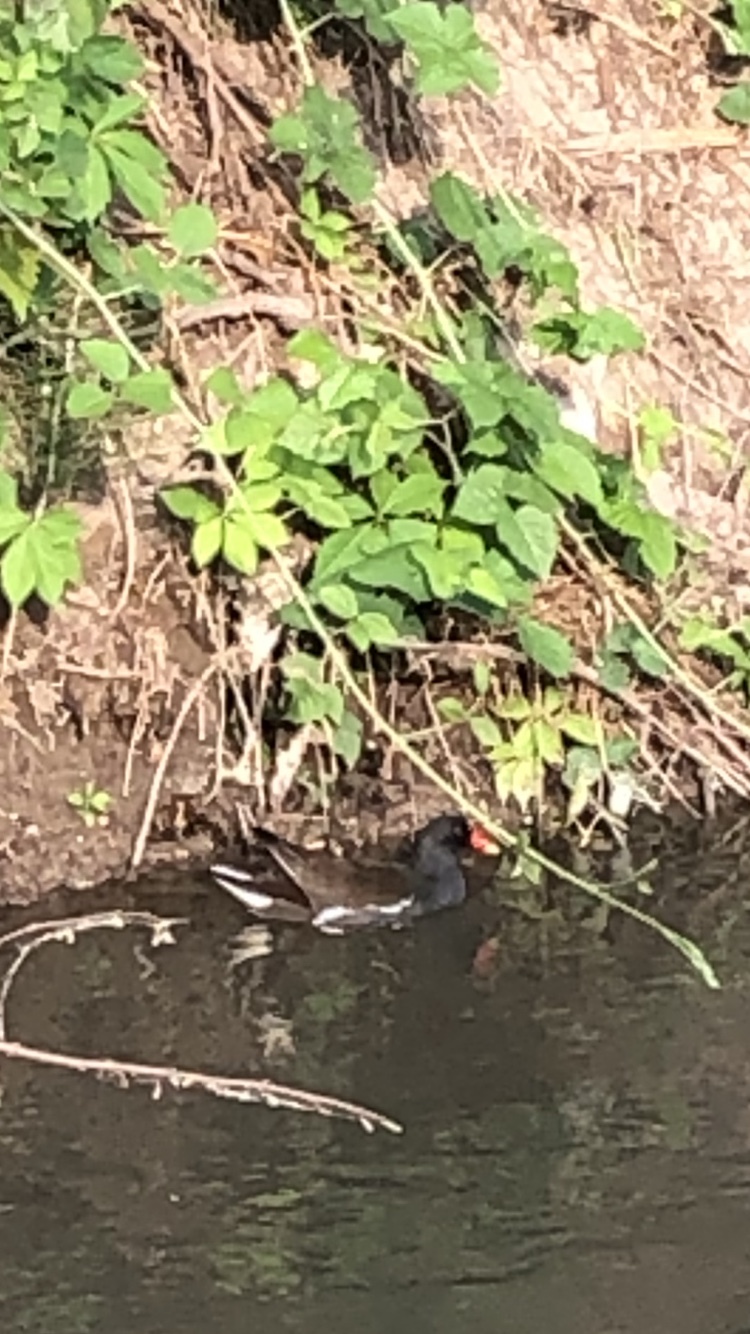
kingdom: Animalia
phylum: Chordata
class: Aves
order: Gruiformes
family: Rallidae
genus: Gallinula
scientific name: Gallinula chloropus
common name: Common moorhen
